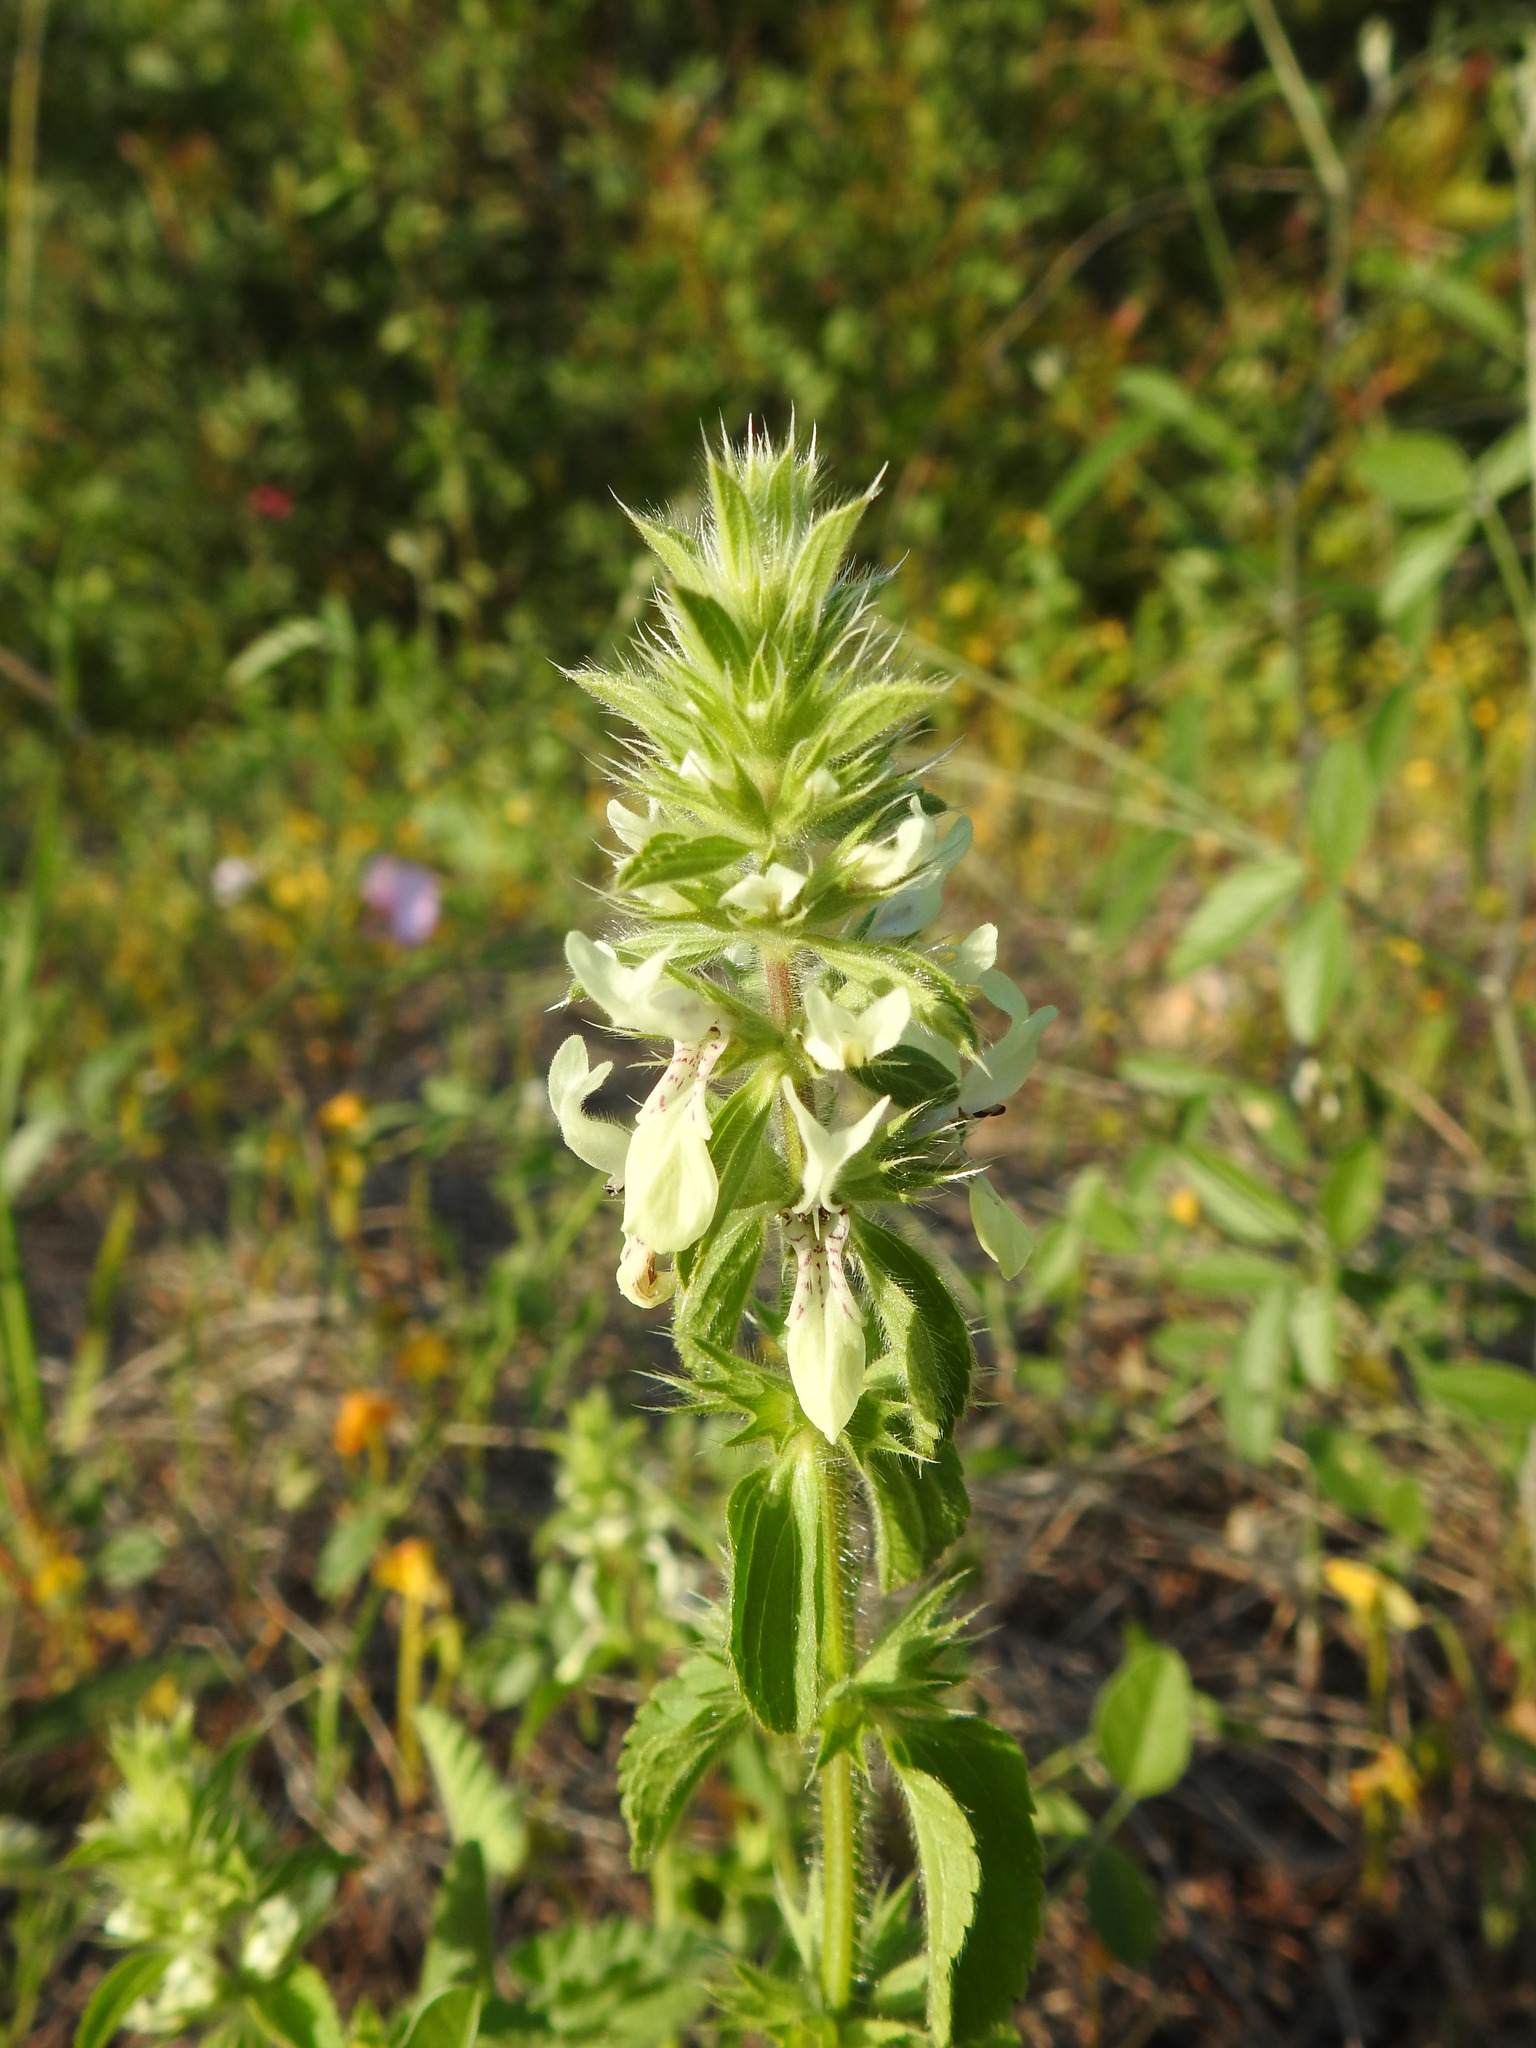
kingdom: Plantae
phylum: Tracheophyta
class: Magnoliopsida
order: Lamiales
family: Lamiaceae
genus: Stachys
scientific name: Stachys ocymastrum
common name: Italian hedgenettle
